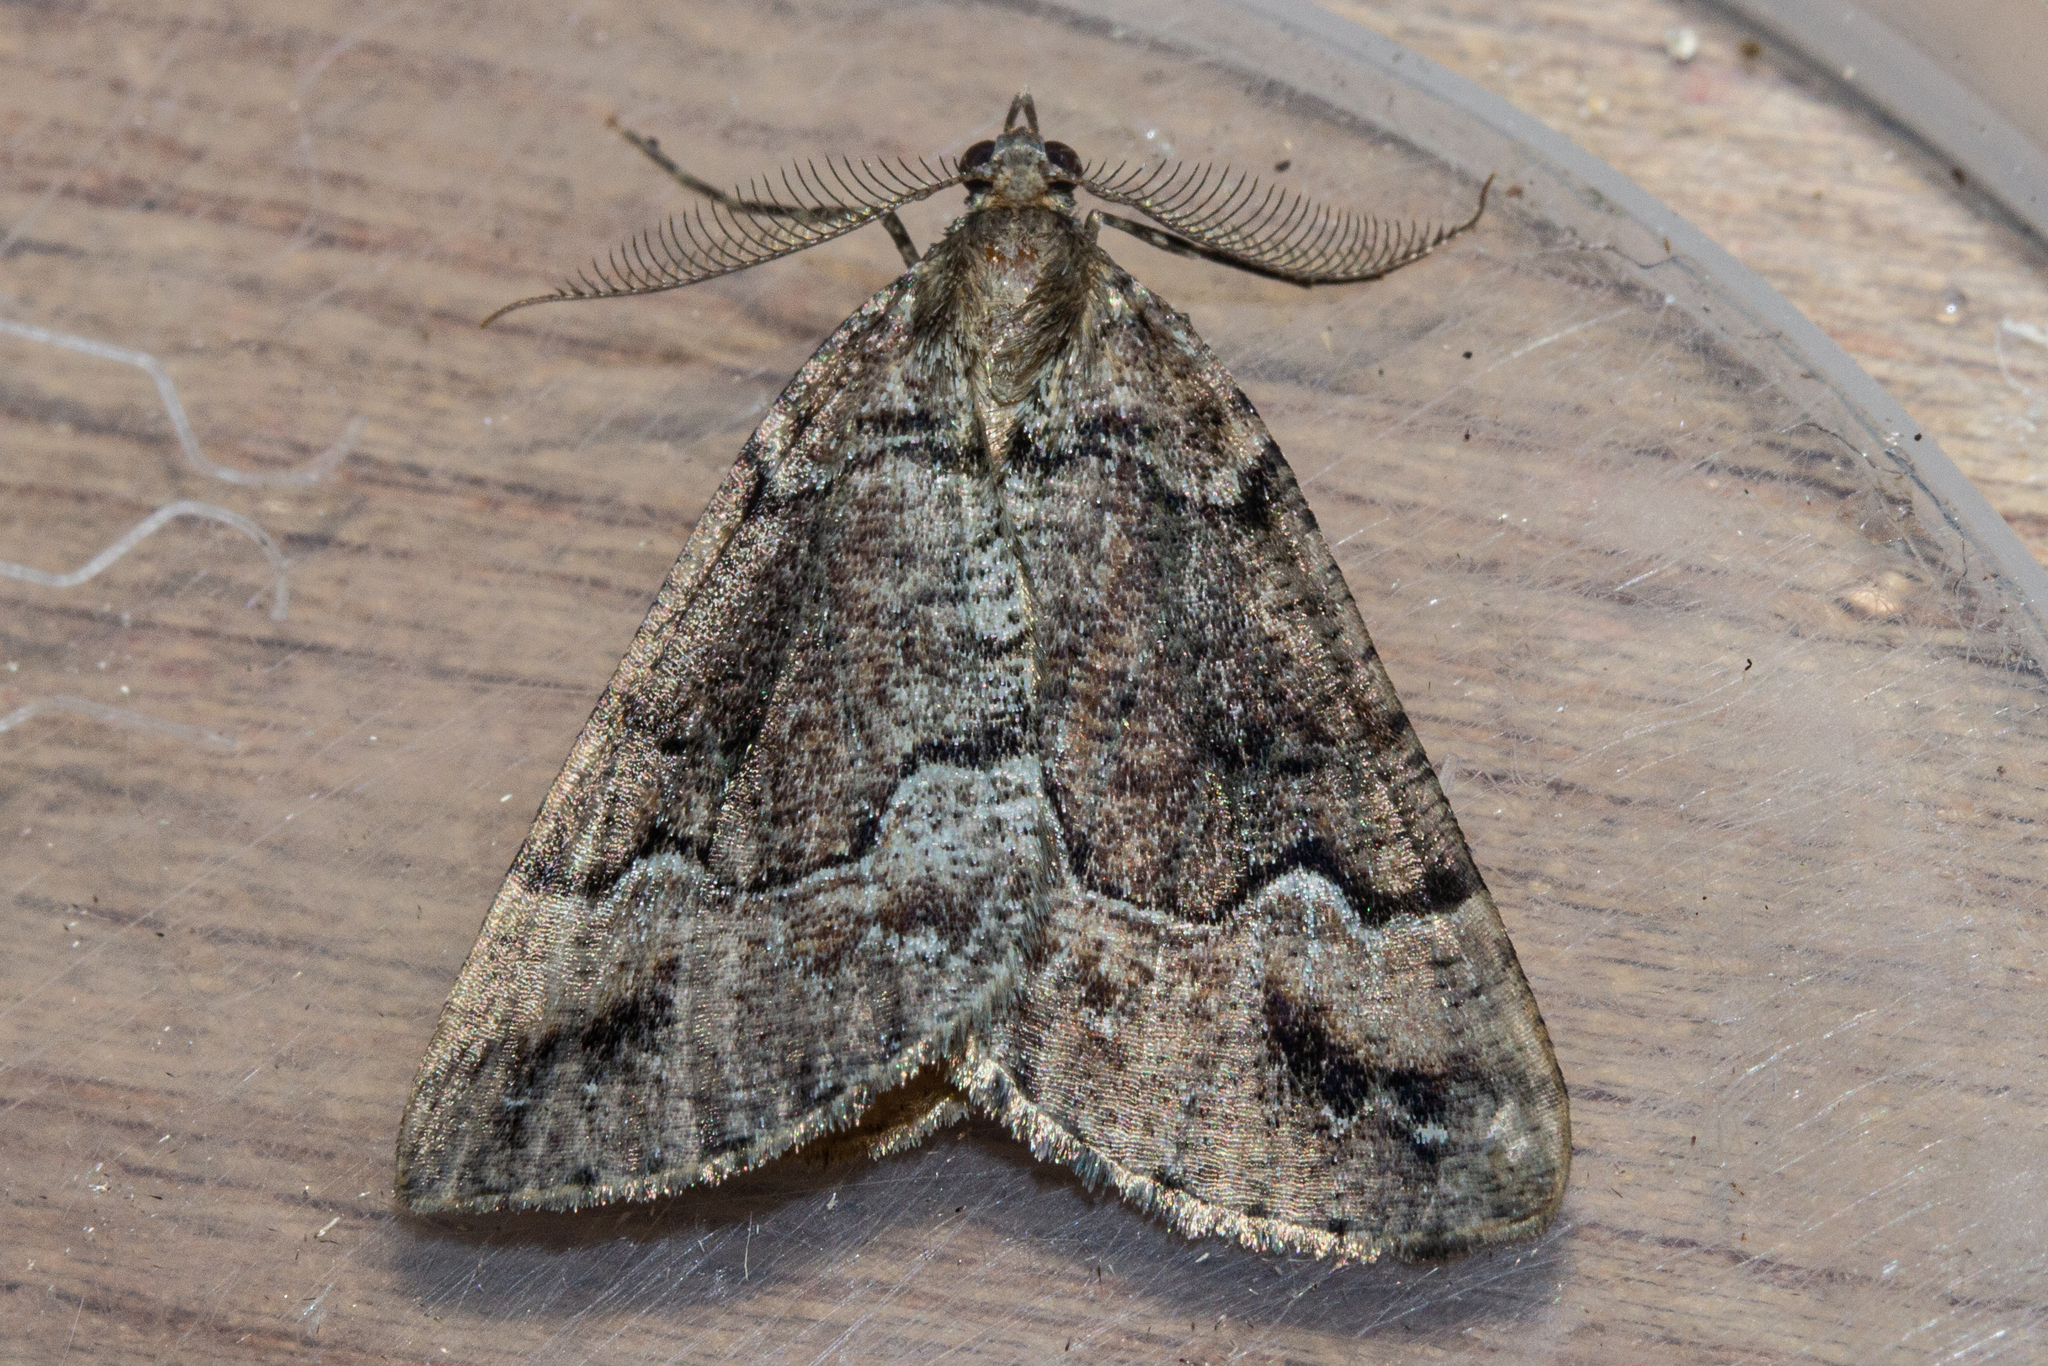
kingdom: Animalia
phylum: Arthropoda
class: Insecta
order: Lepidoptera
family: Geometridae
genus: Pseudocoremia
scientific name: Pseudocoremia colpogramma
